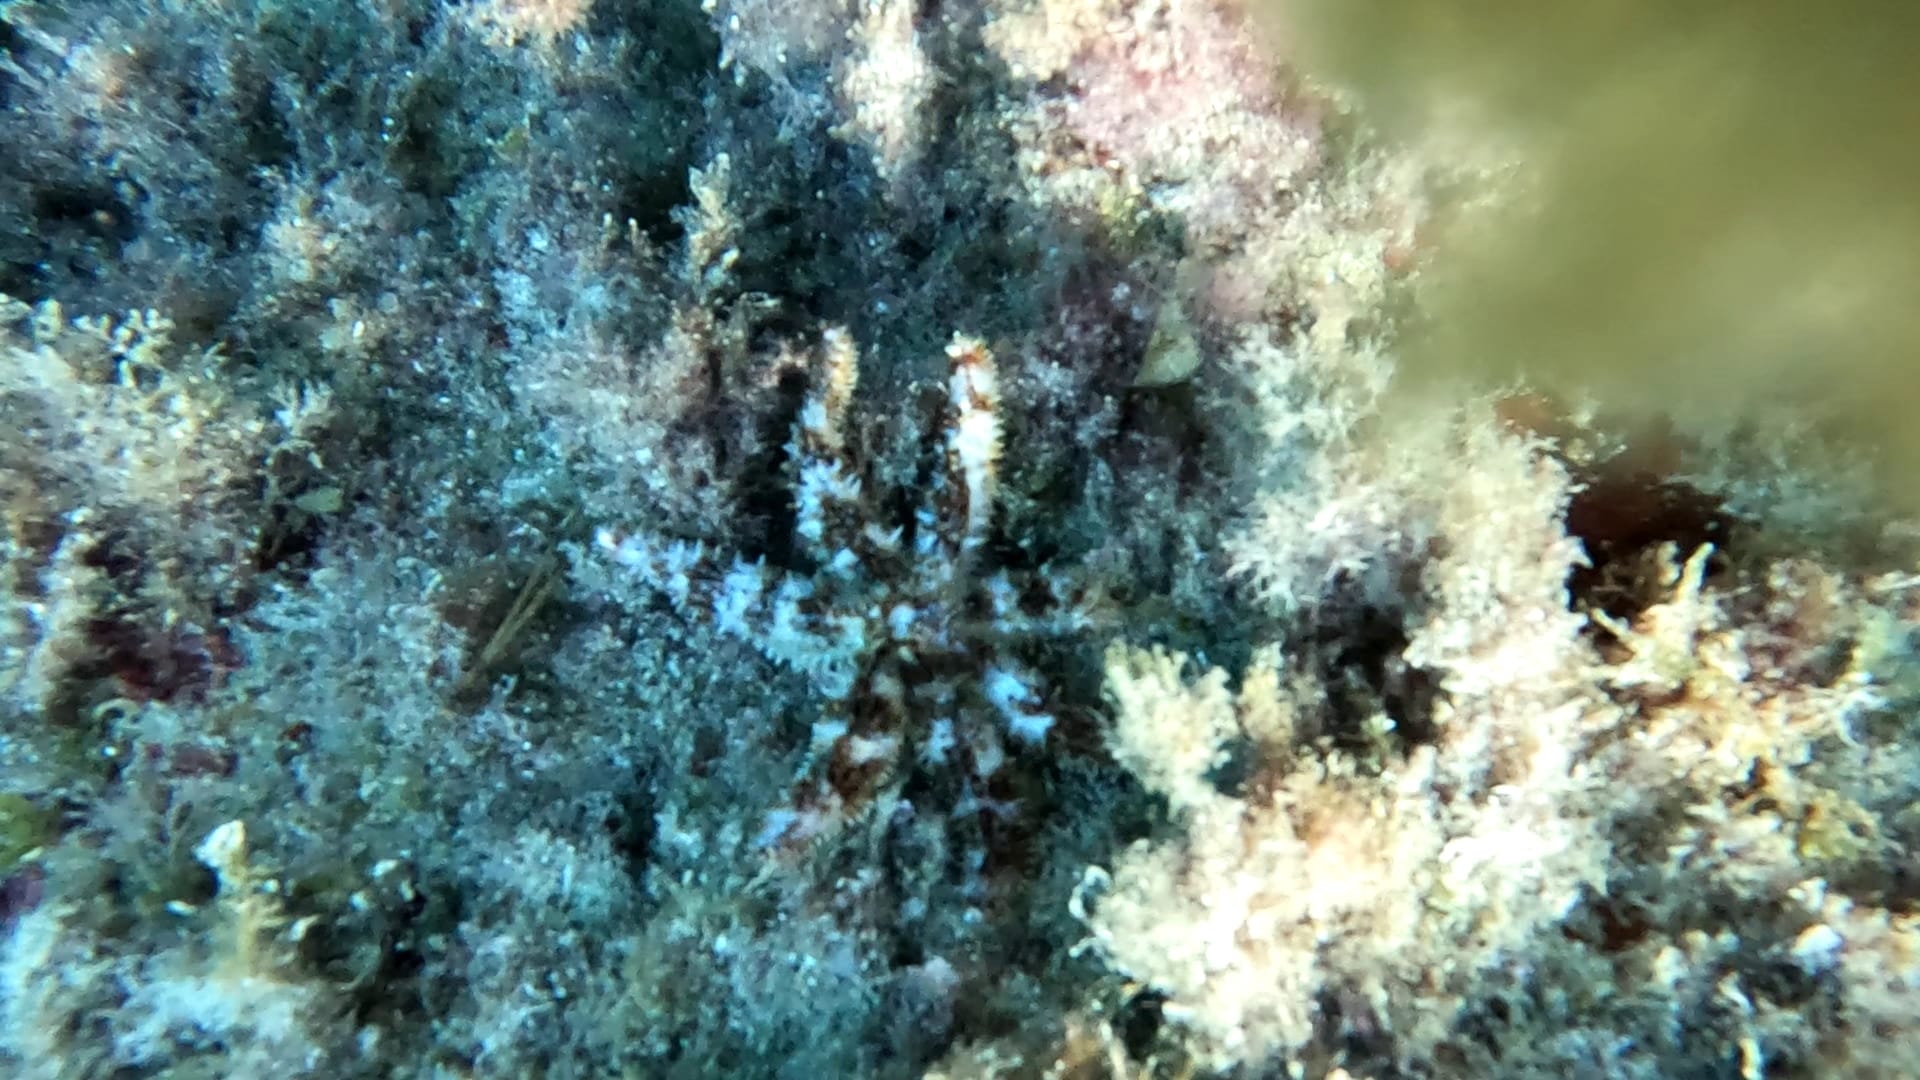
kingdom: Animalia
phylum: Echinodermata
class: Asteroidea
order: Forcipulatida
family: Asteriidae
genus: Coscinasterias
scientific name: Coscinasterias tenuispina
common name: Blue spiny starfish
